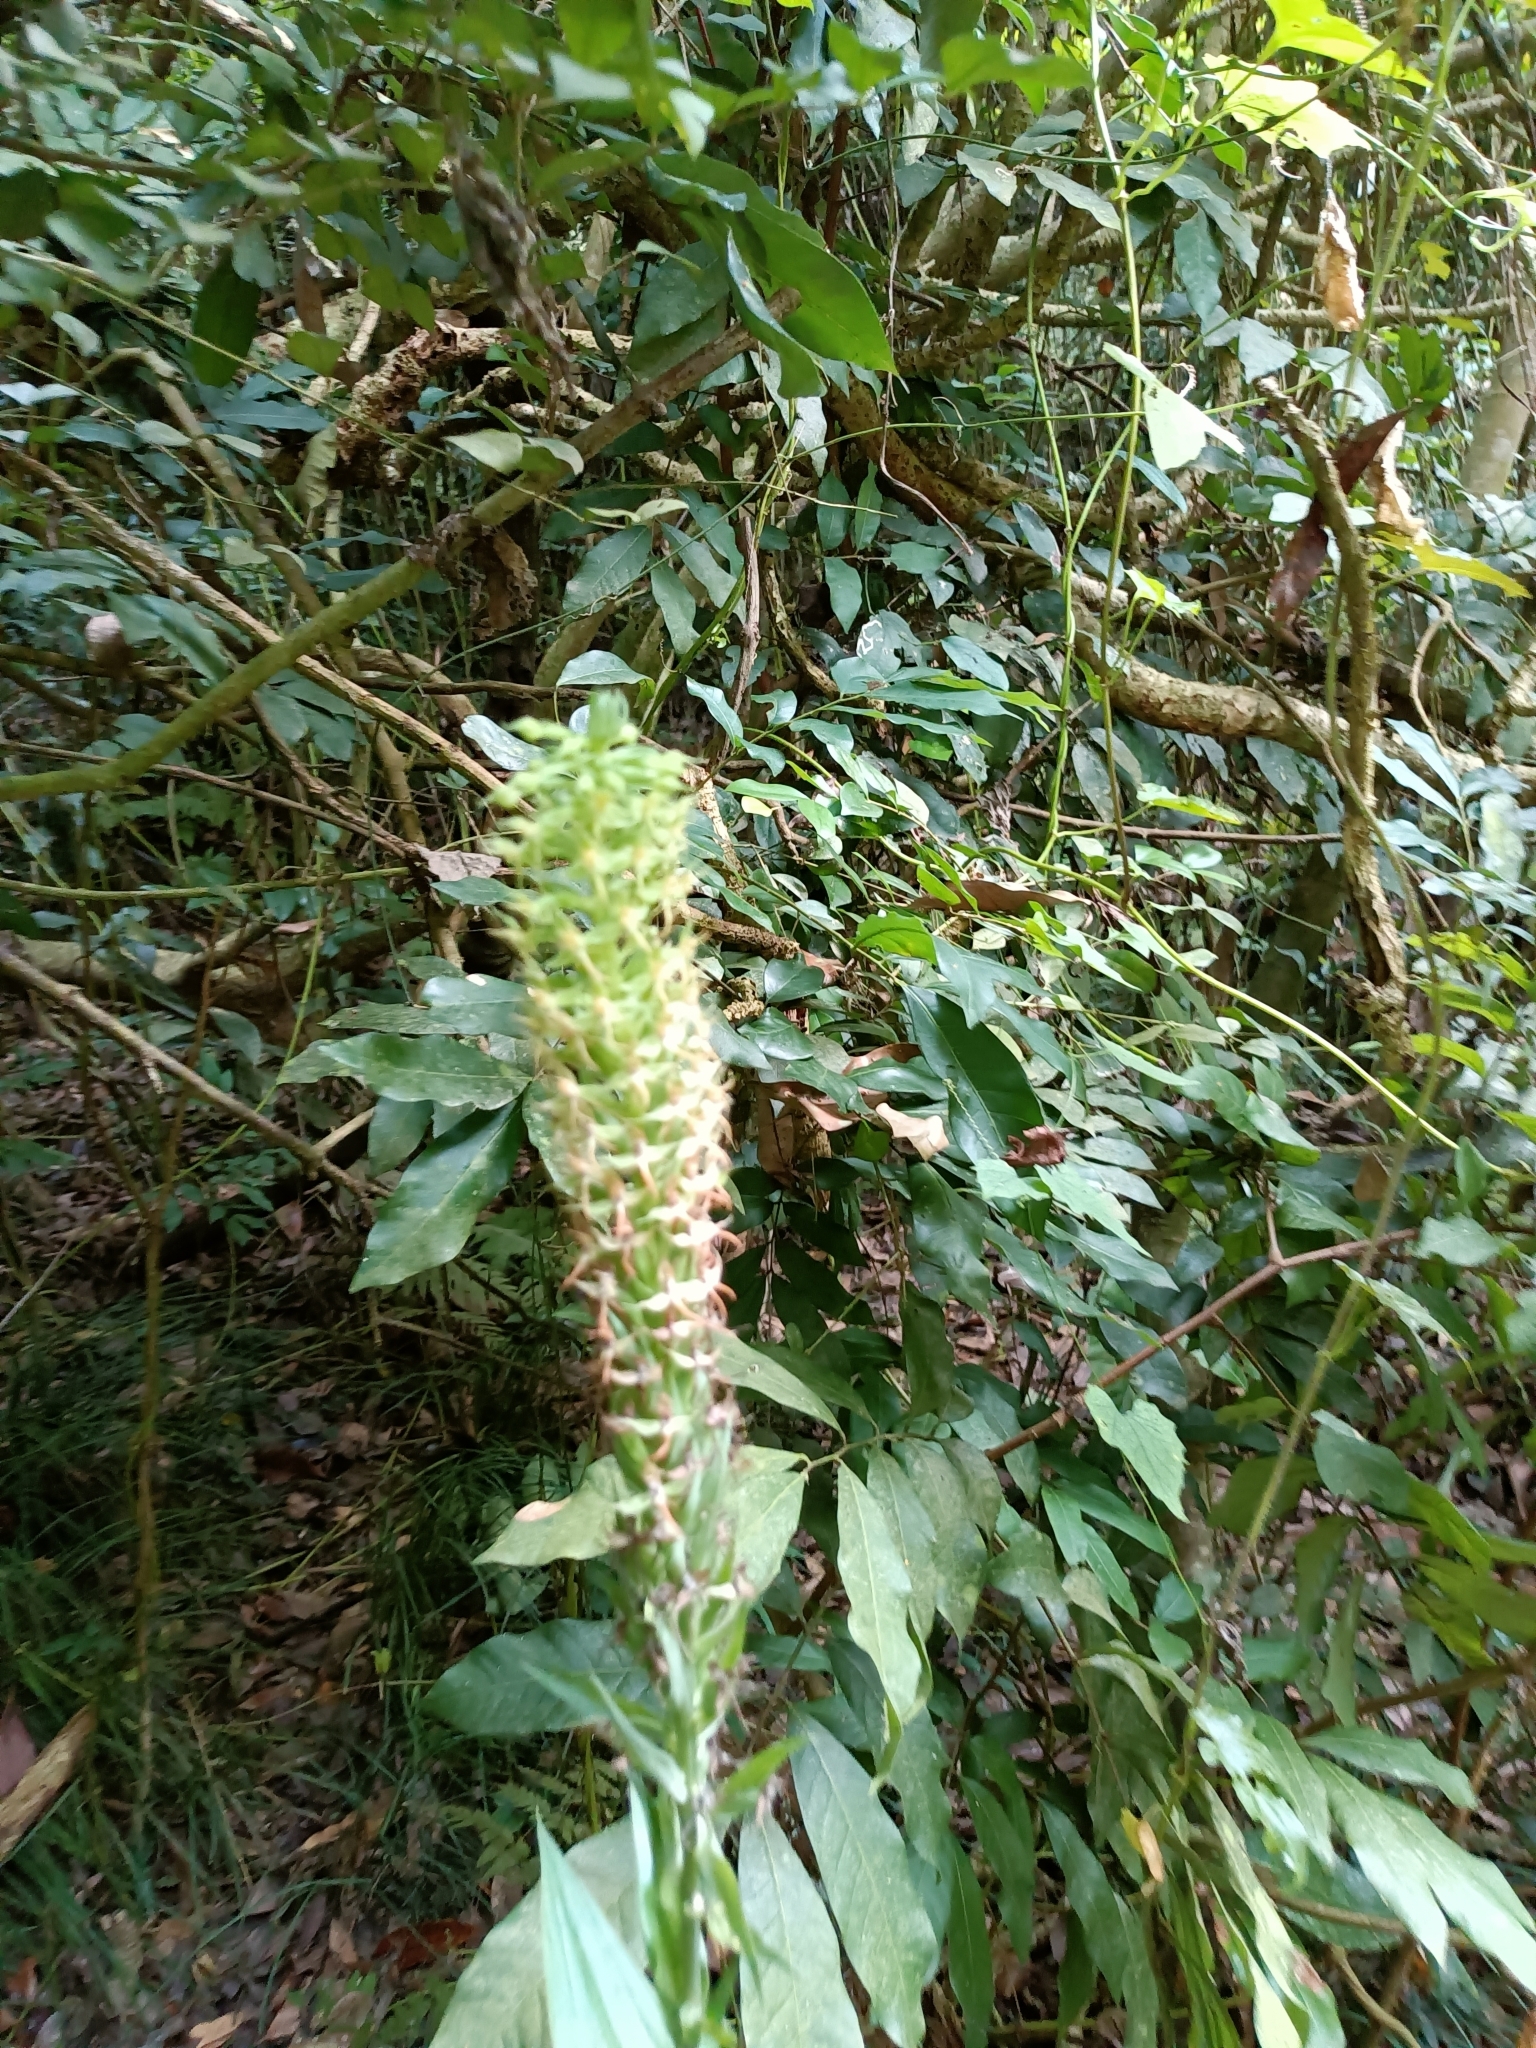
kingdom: Plantae
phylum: Tracheophyta
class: Liliopsida
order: Asparagales
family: Orchidaceae
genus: Habenaria
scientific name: Habenaria stenopetala
